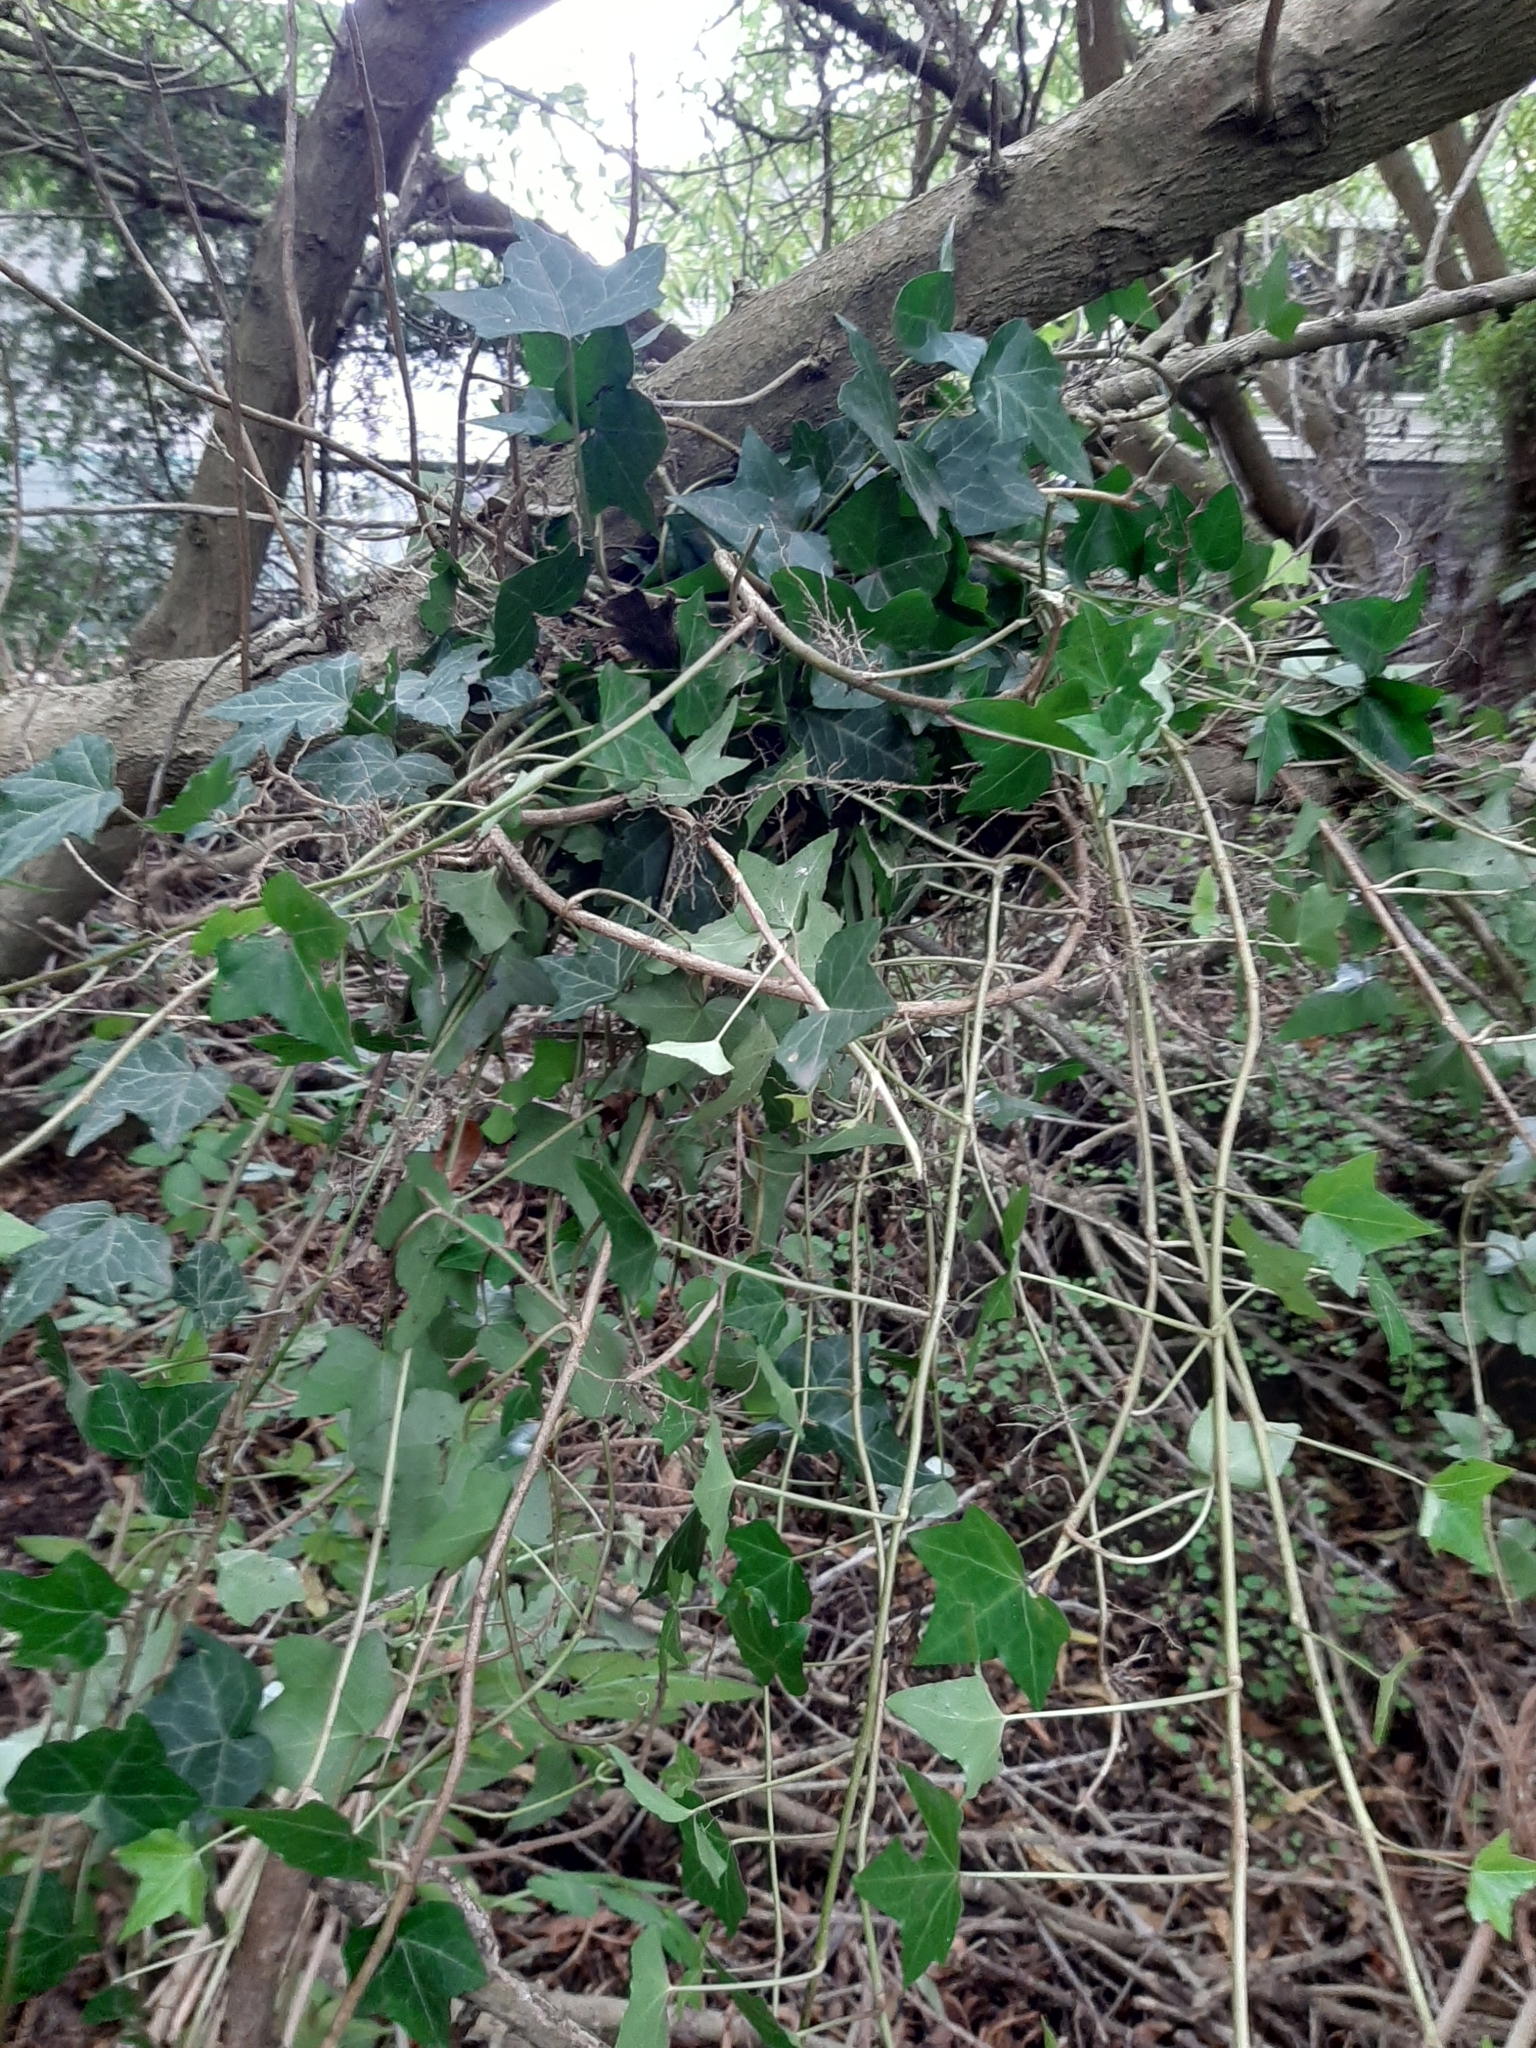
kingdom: Plantae
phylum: Tracheophyta
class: Magnoliopsida
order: Apiales
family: Araliaceae
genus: Hedera
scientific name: Hedera helix
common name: Ivy
